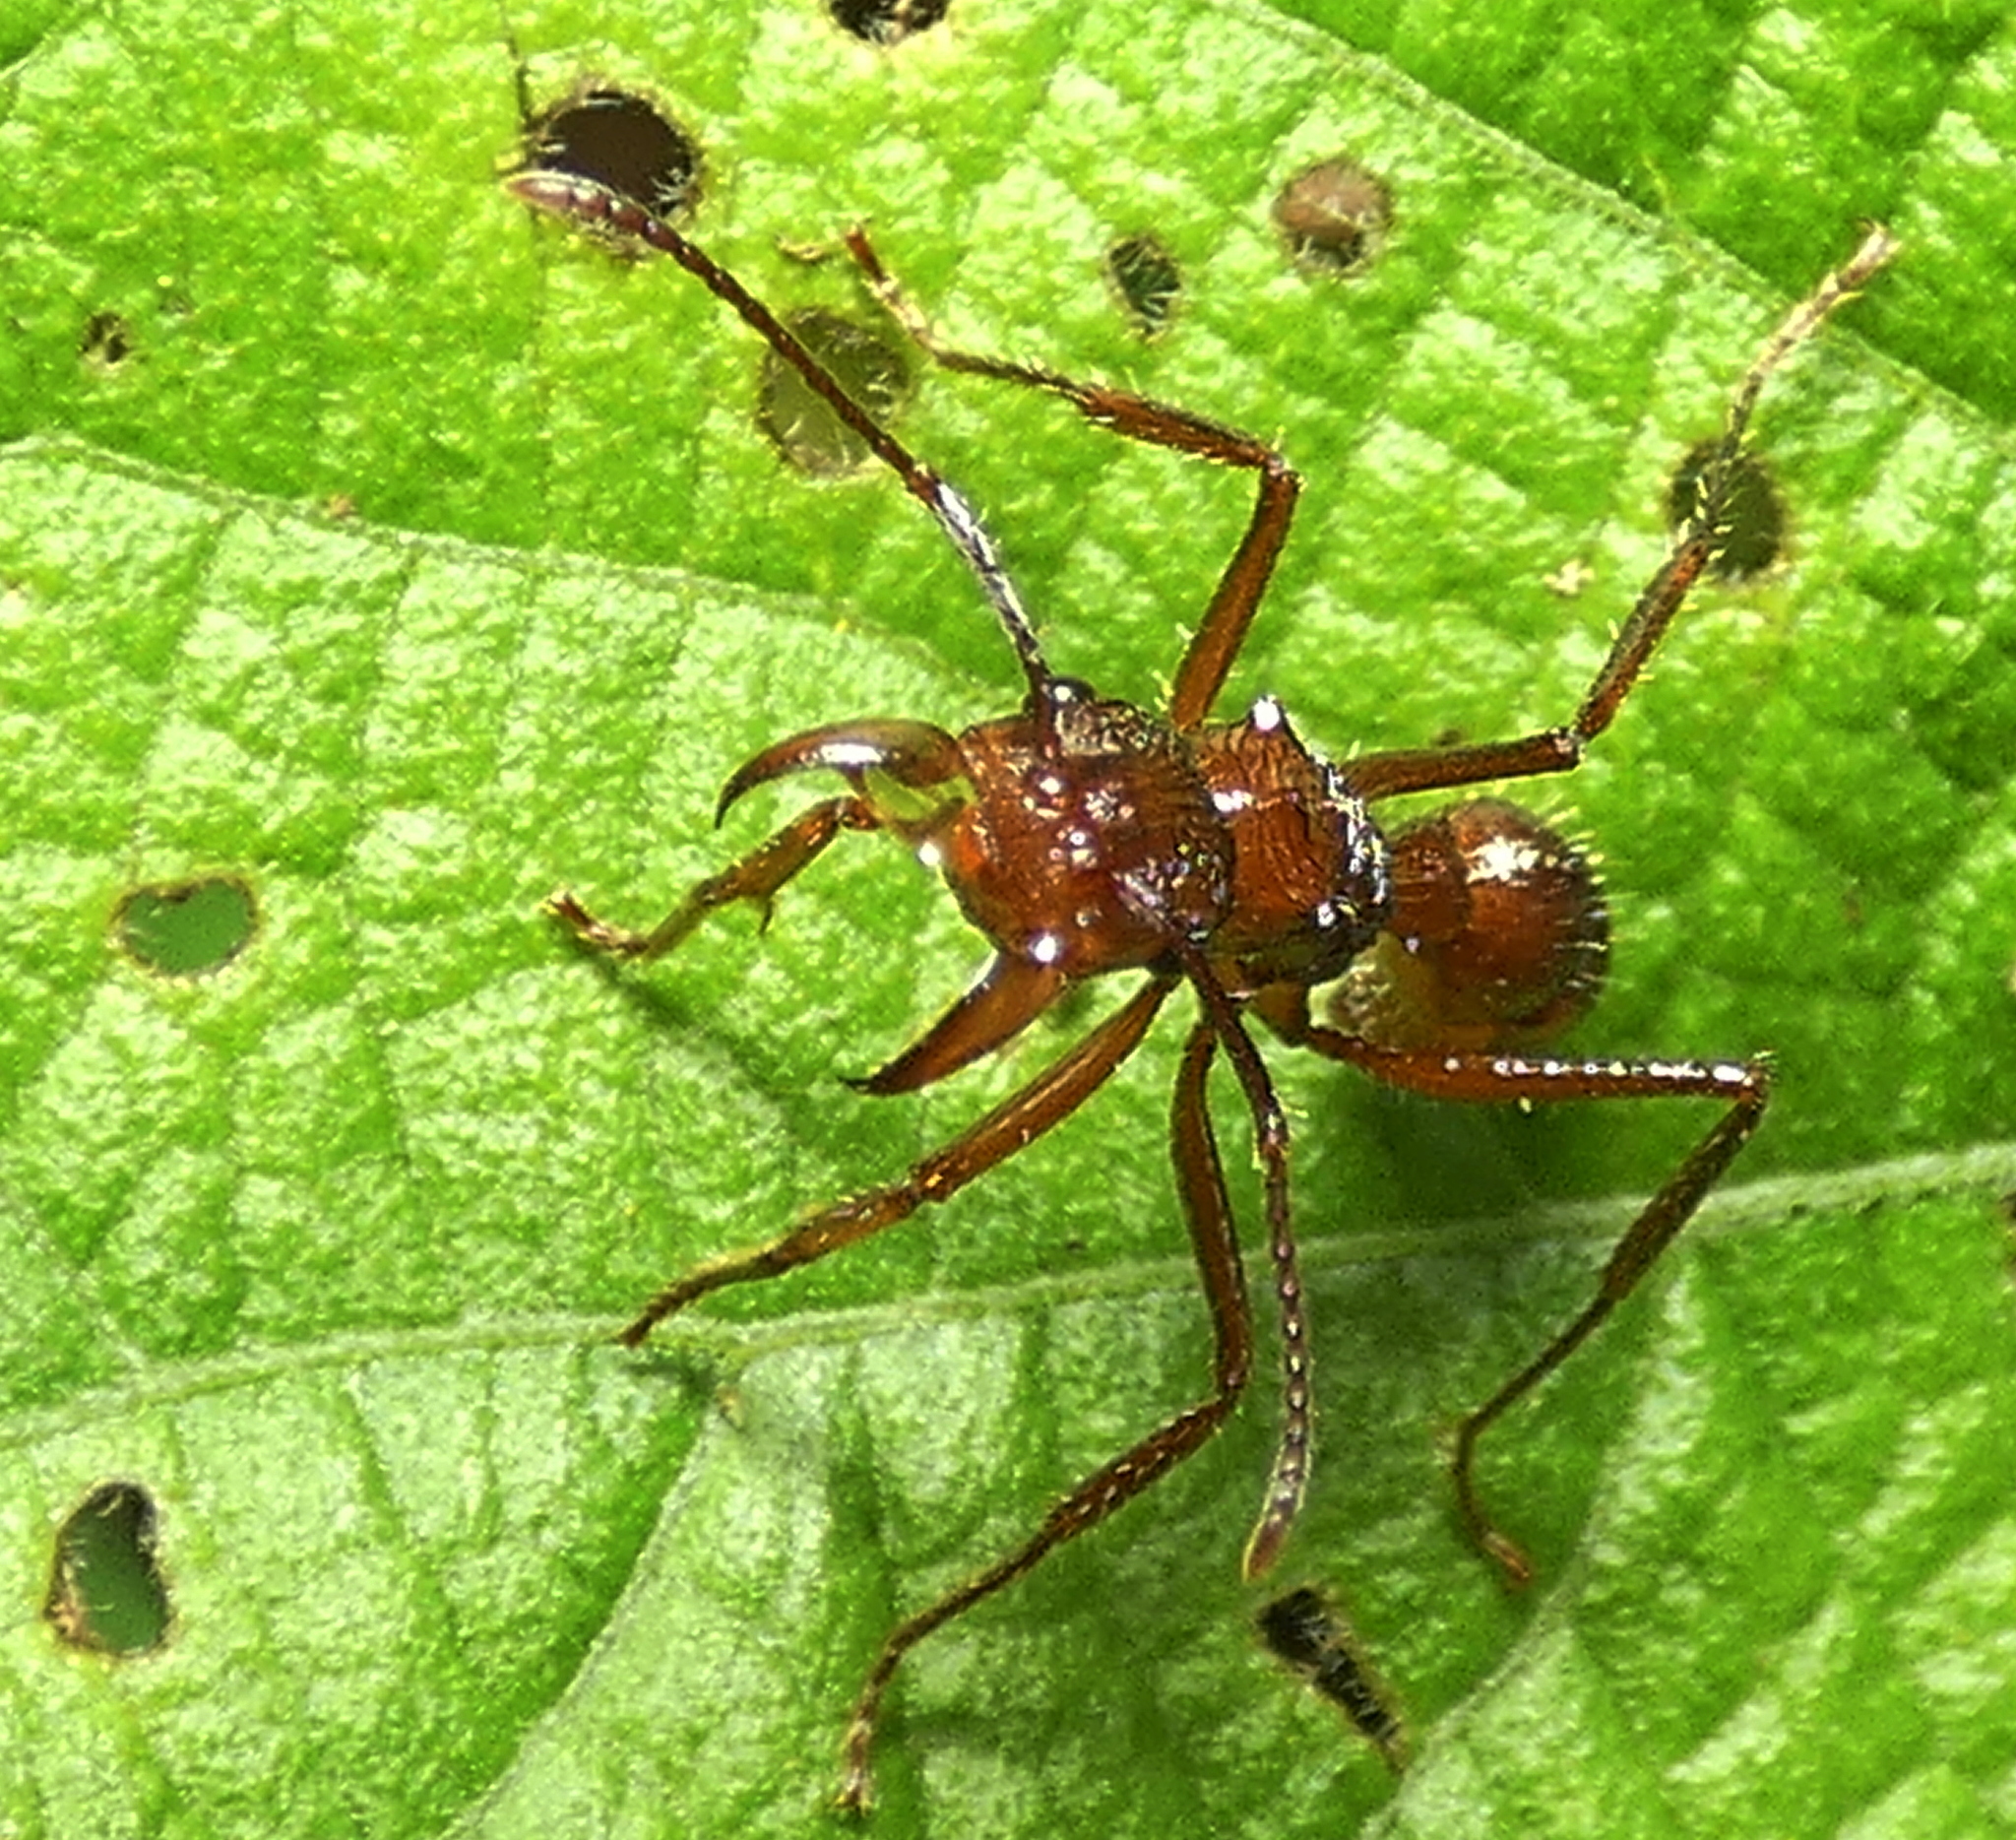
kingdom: Animalia
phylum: Arthropoda
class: Insecta
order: Hymenoptera
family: Formicidae
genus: Ectatomma
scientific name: Ectatomma tuberculatum
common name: Ant
